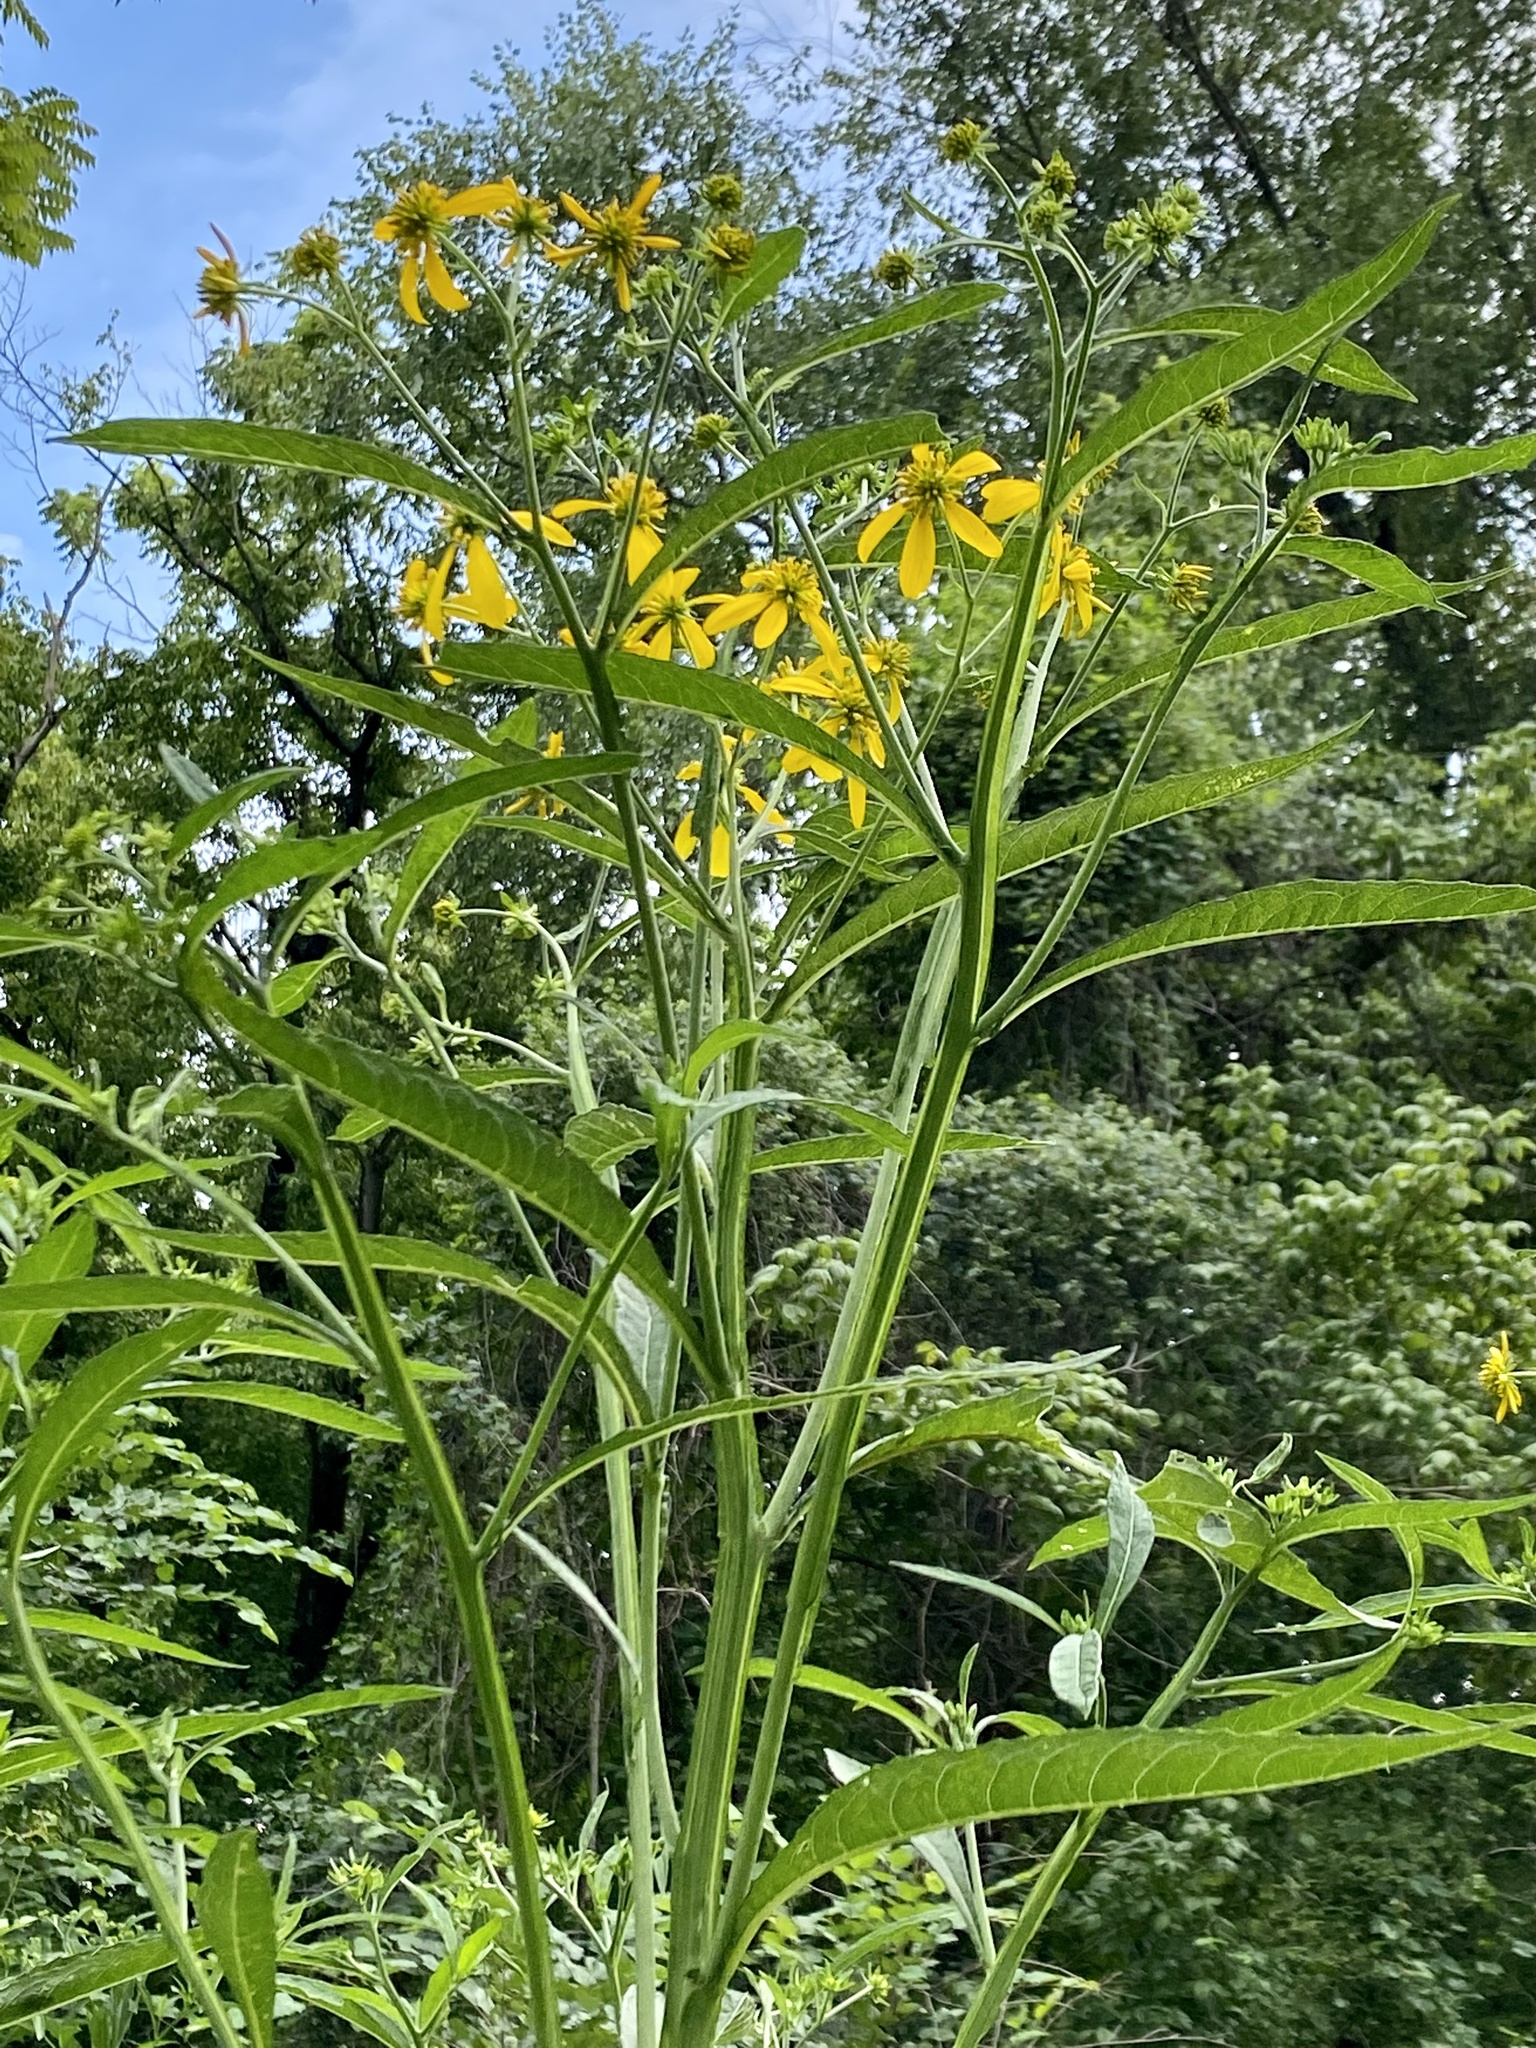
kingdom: Plantae
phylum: Tracheophyta
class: Magnoliopsida
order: Asterales
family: Asteraceae
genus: Verbesina
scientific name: Verbesina alternifolia
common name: Wingstem
